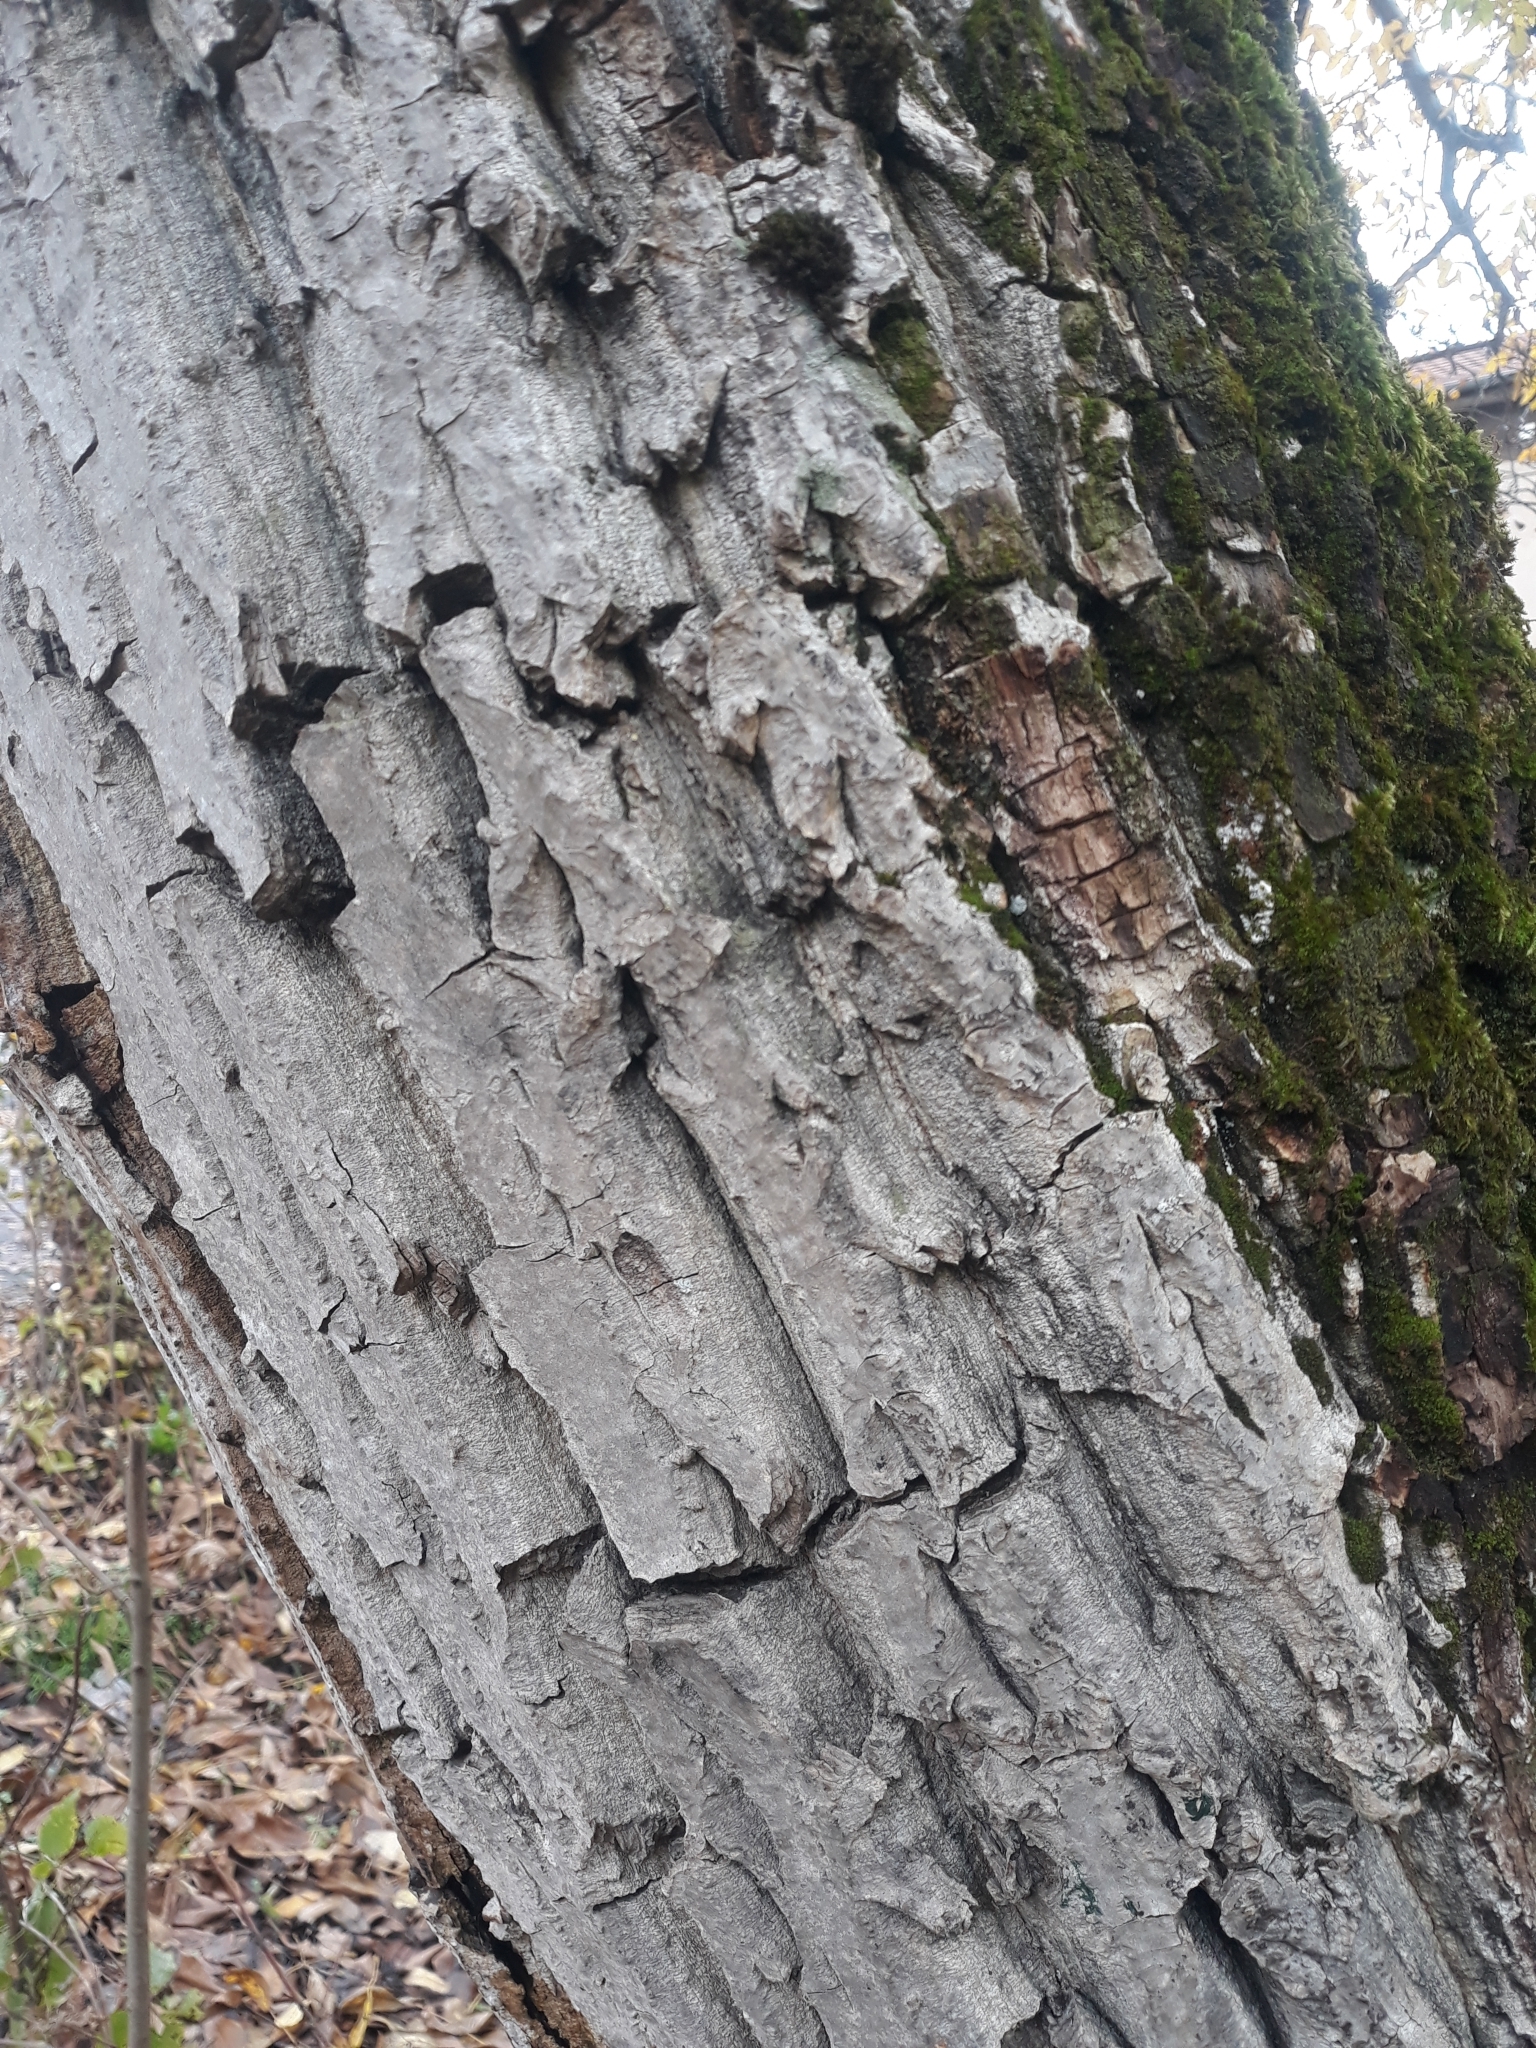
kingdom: Plantae
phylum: Tracheophyta
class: Magnoliopsida
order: Fagales
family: Juglandaceae
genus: Juglans
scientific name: Juglans regia
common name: Walnut
